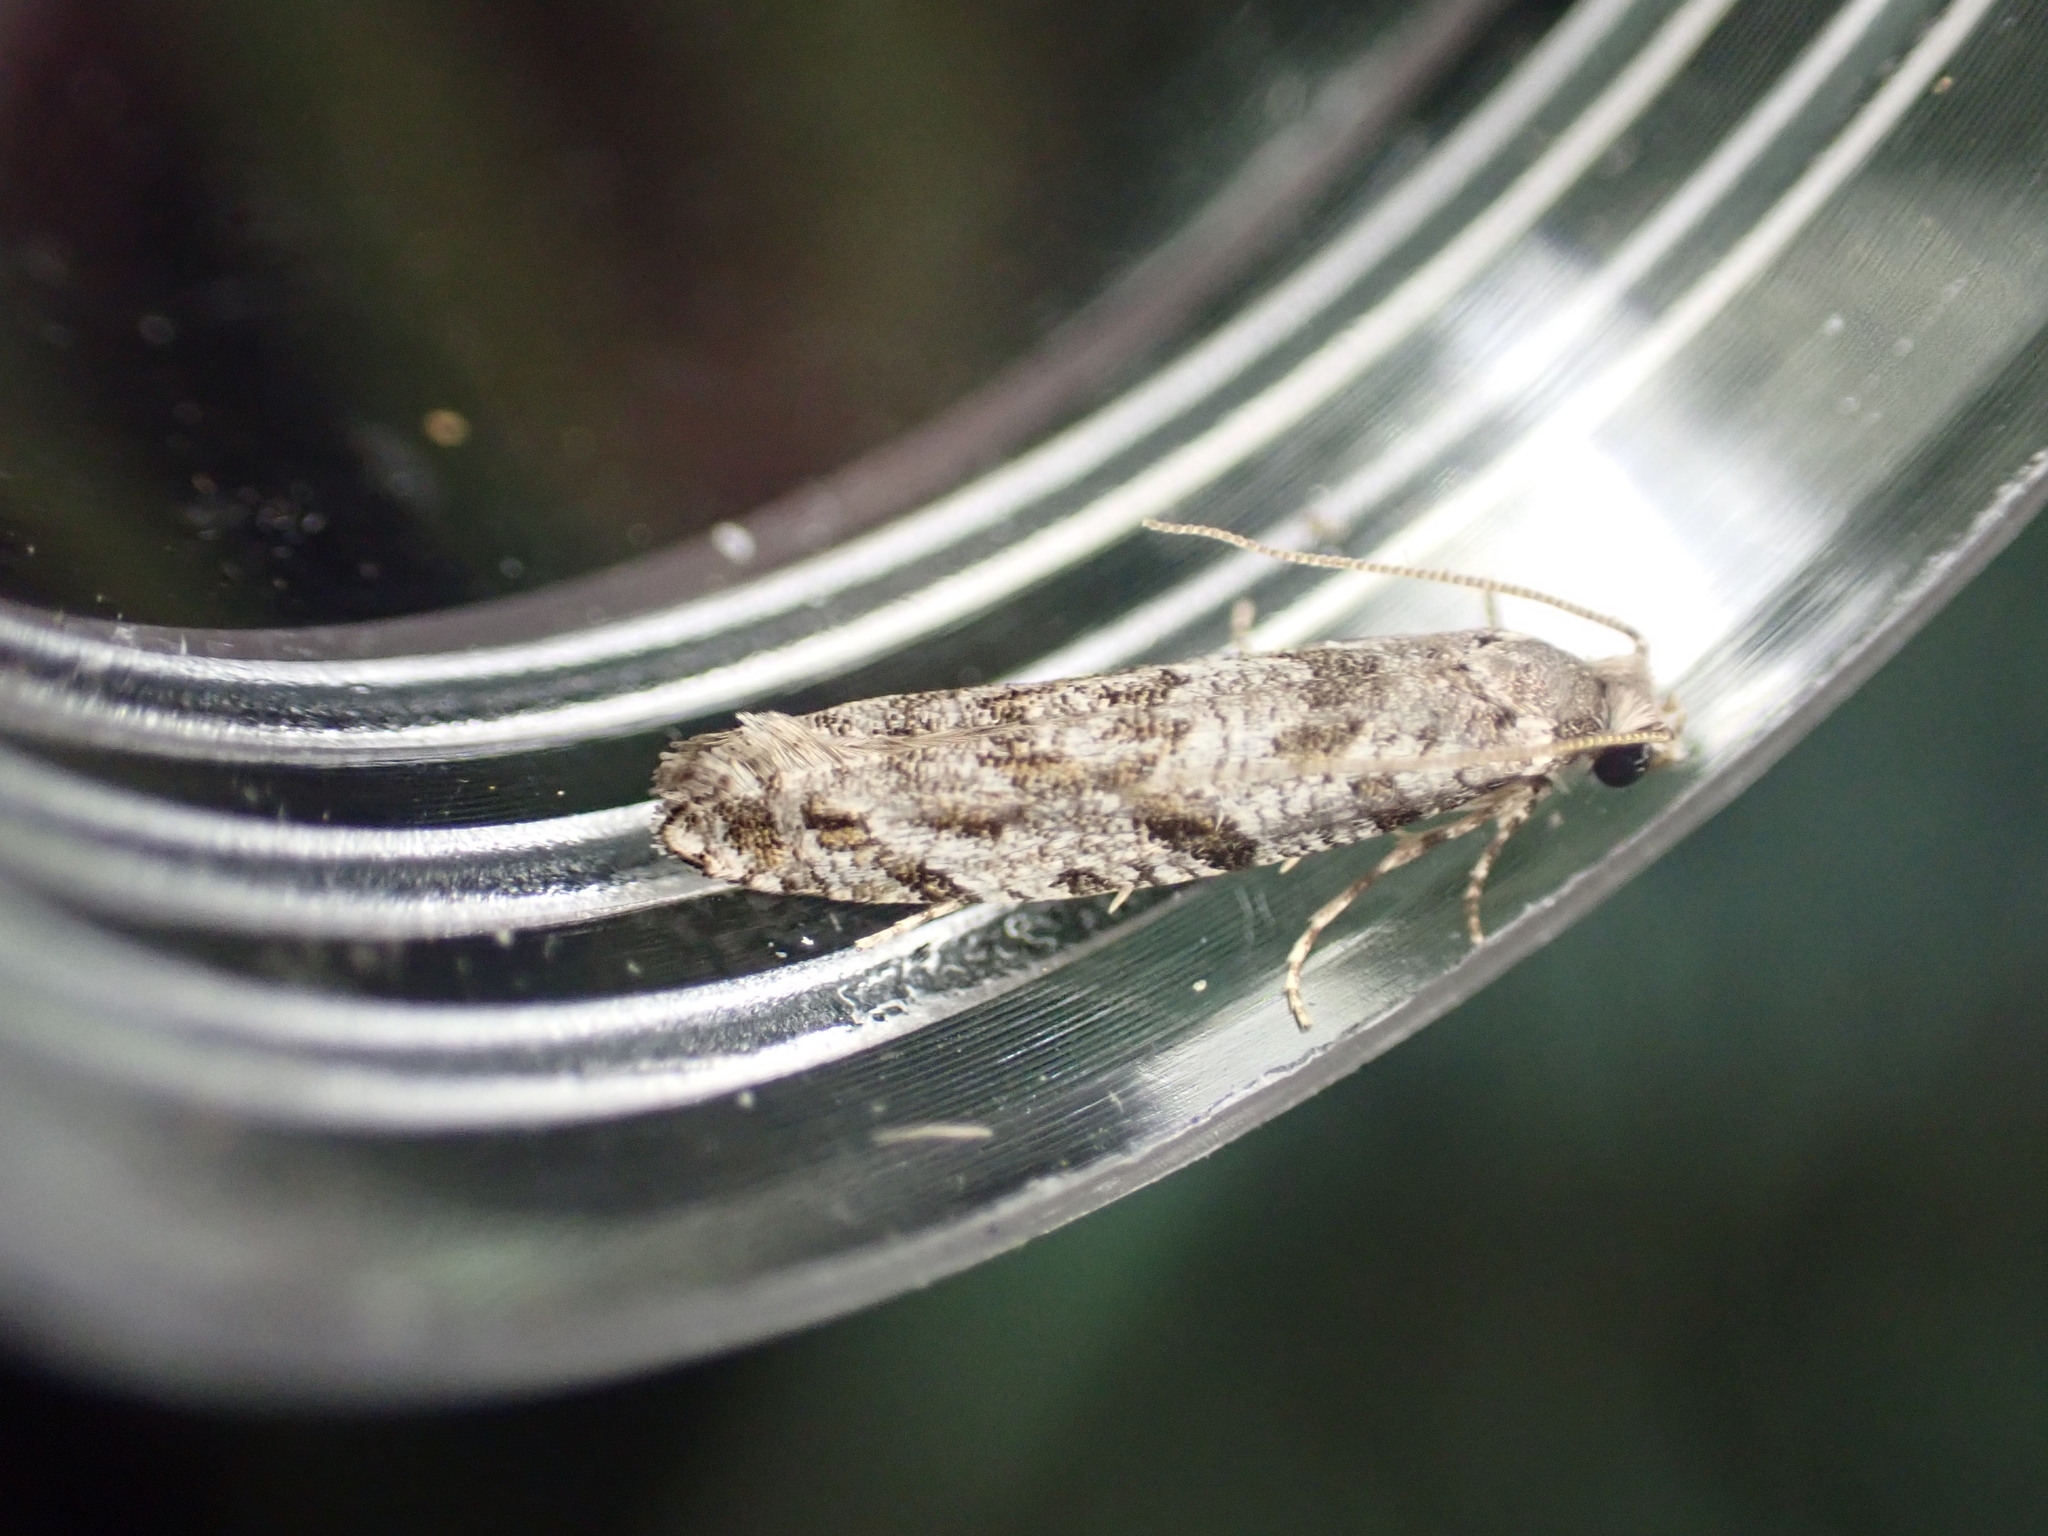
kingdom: Animalia
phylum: Arthropoda
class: Insecta
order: Lepidoptera
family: Tineidae
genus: Archyala
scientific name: Archyala paraglypta
